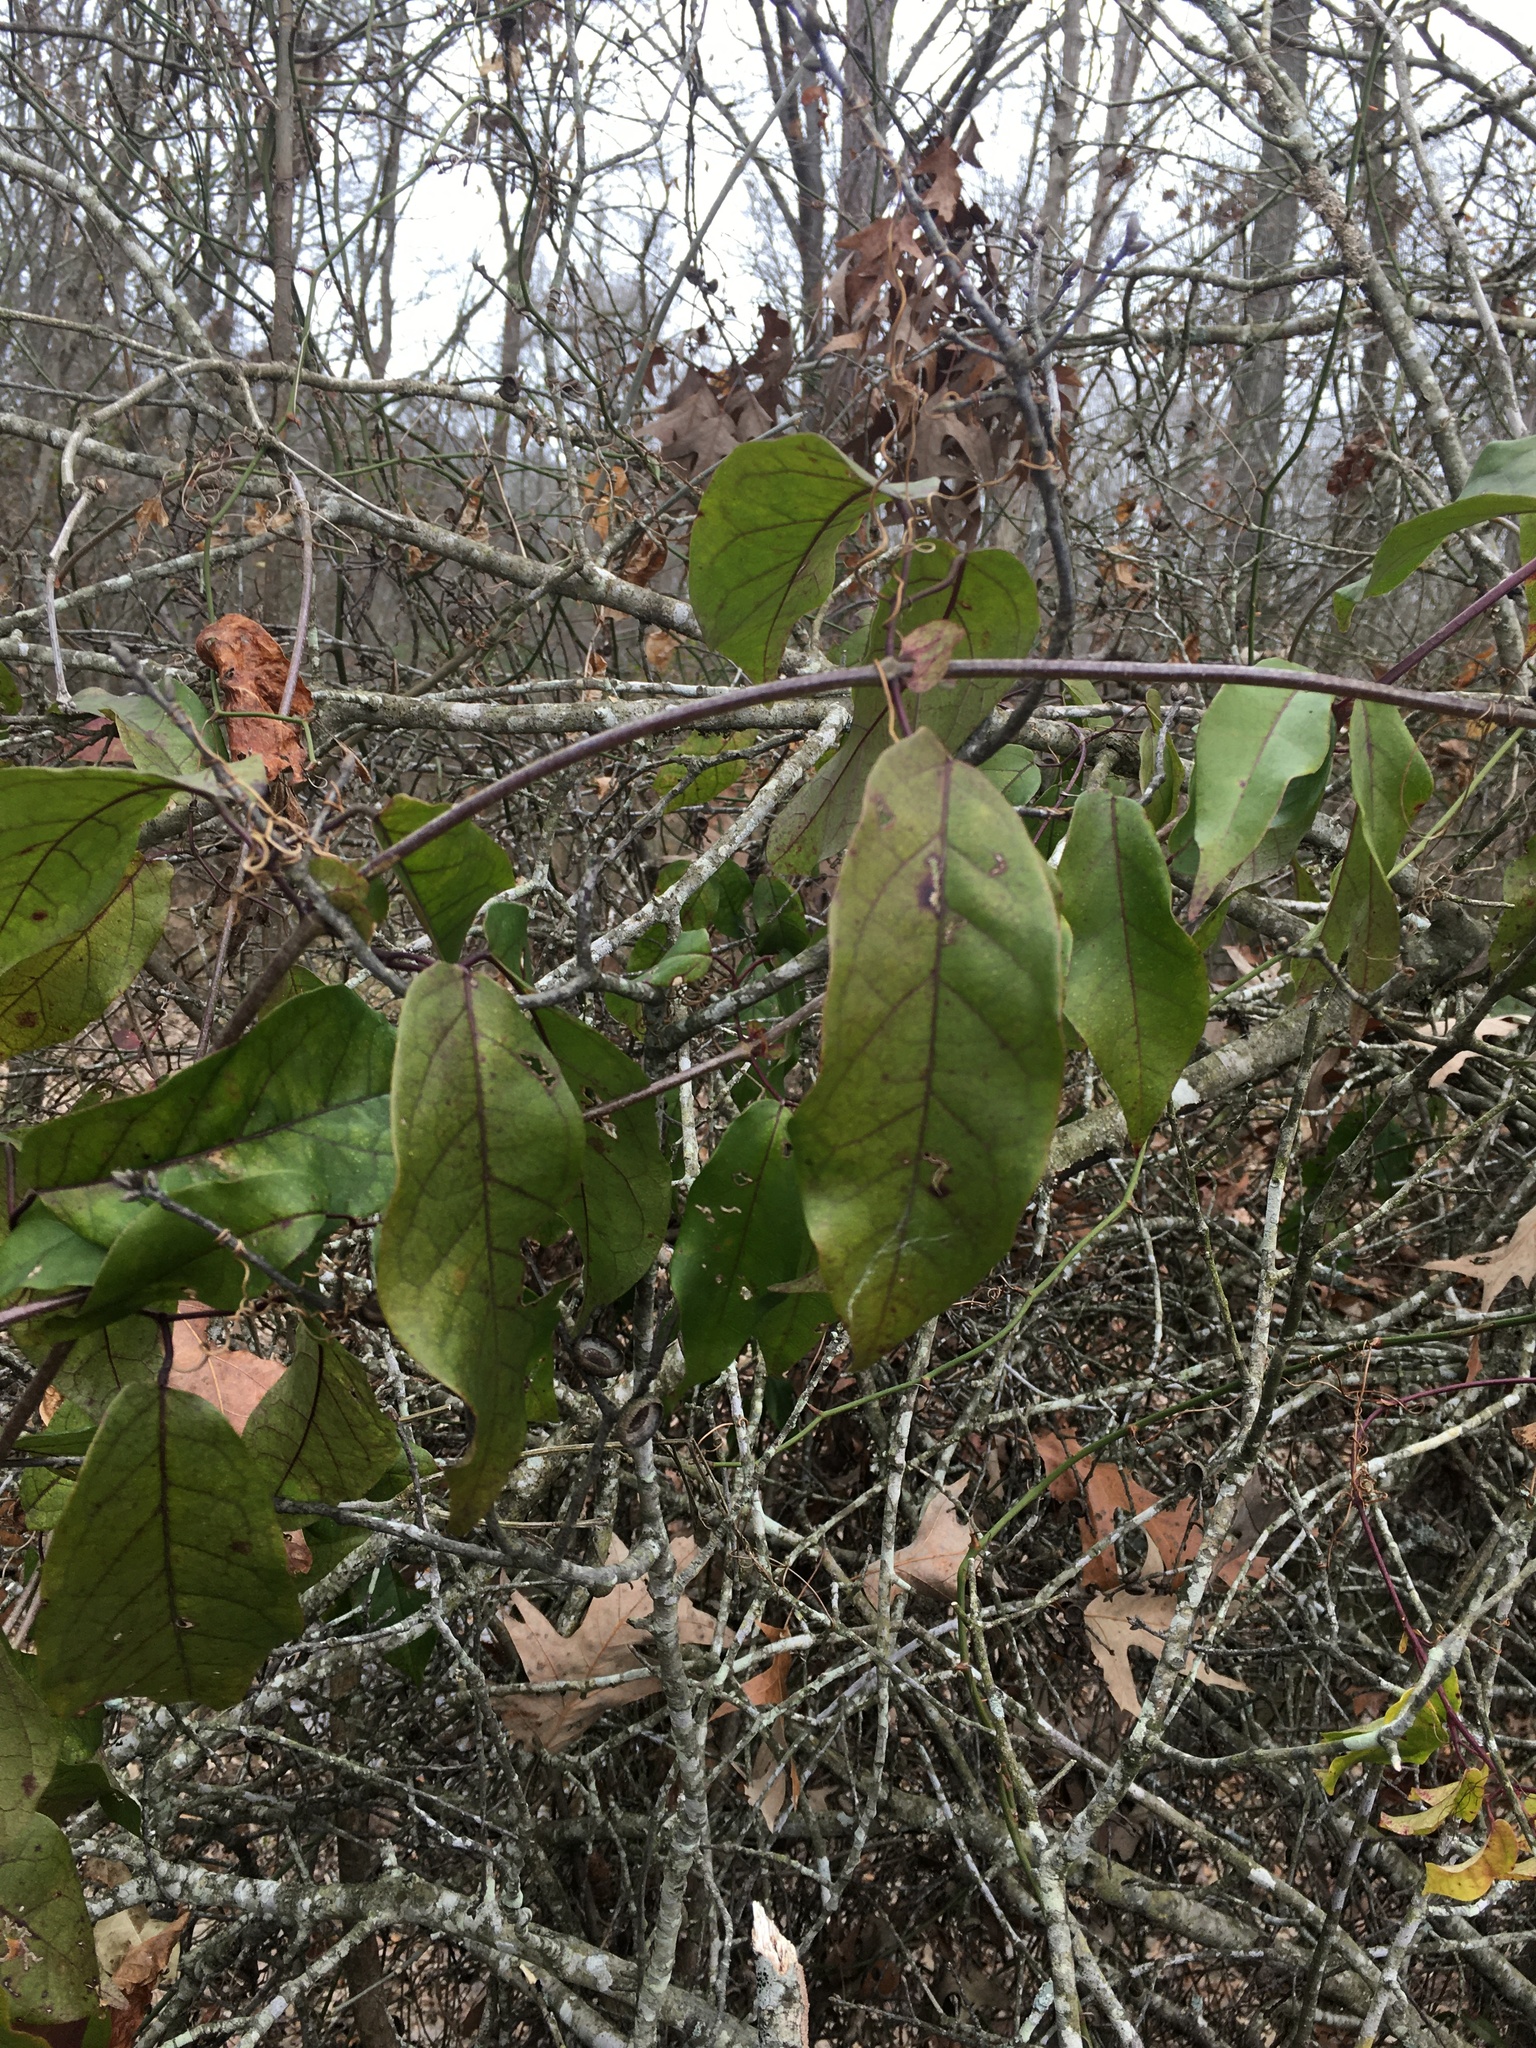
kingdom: Plantae
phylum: Tracheophyta
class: Magnoliopsida
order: Lamiales
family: Bignoniaceae
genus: Bignonia
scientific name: Bignonia capreolata
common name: Crossvine
